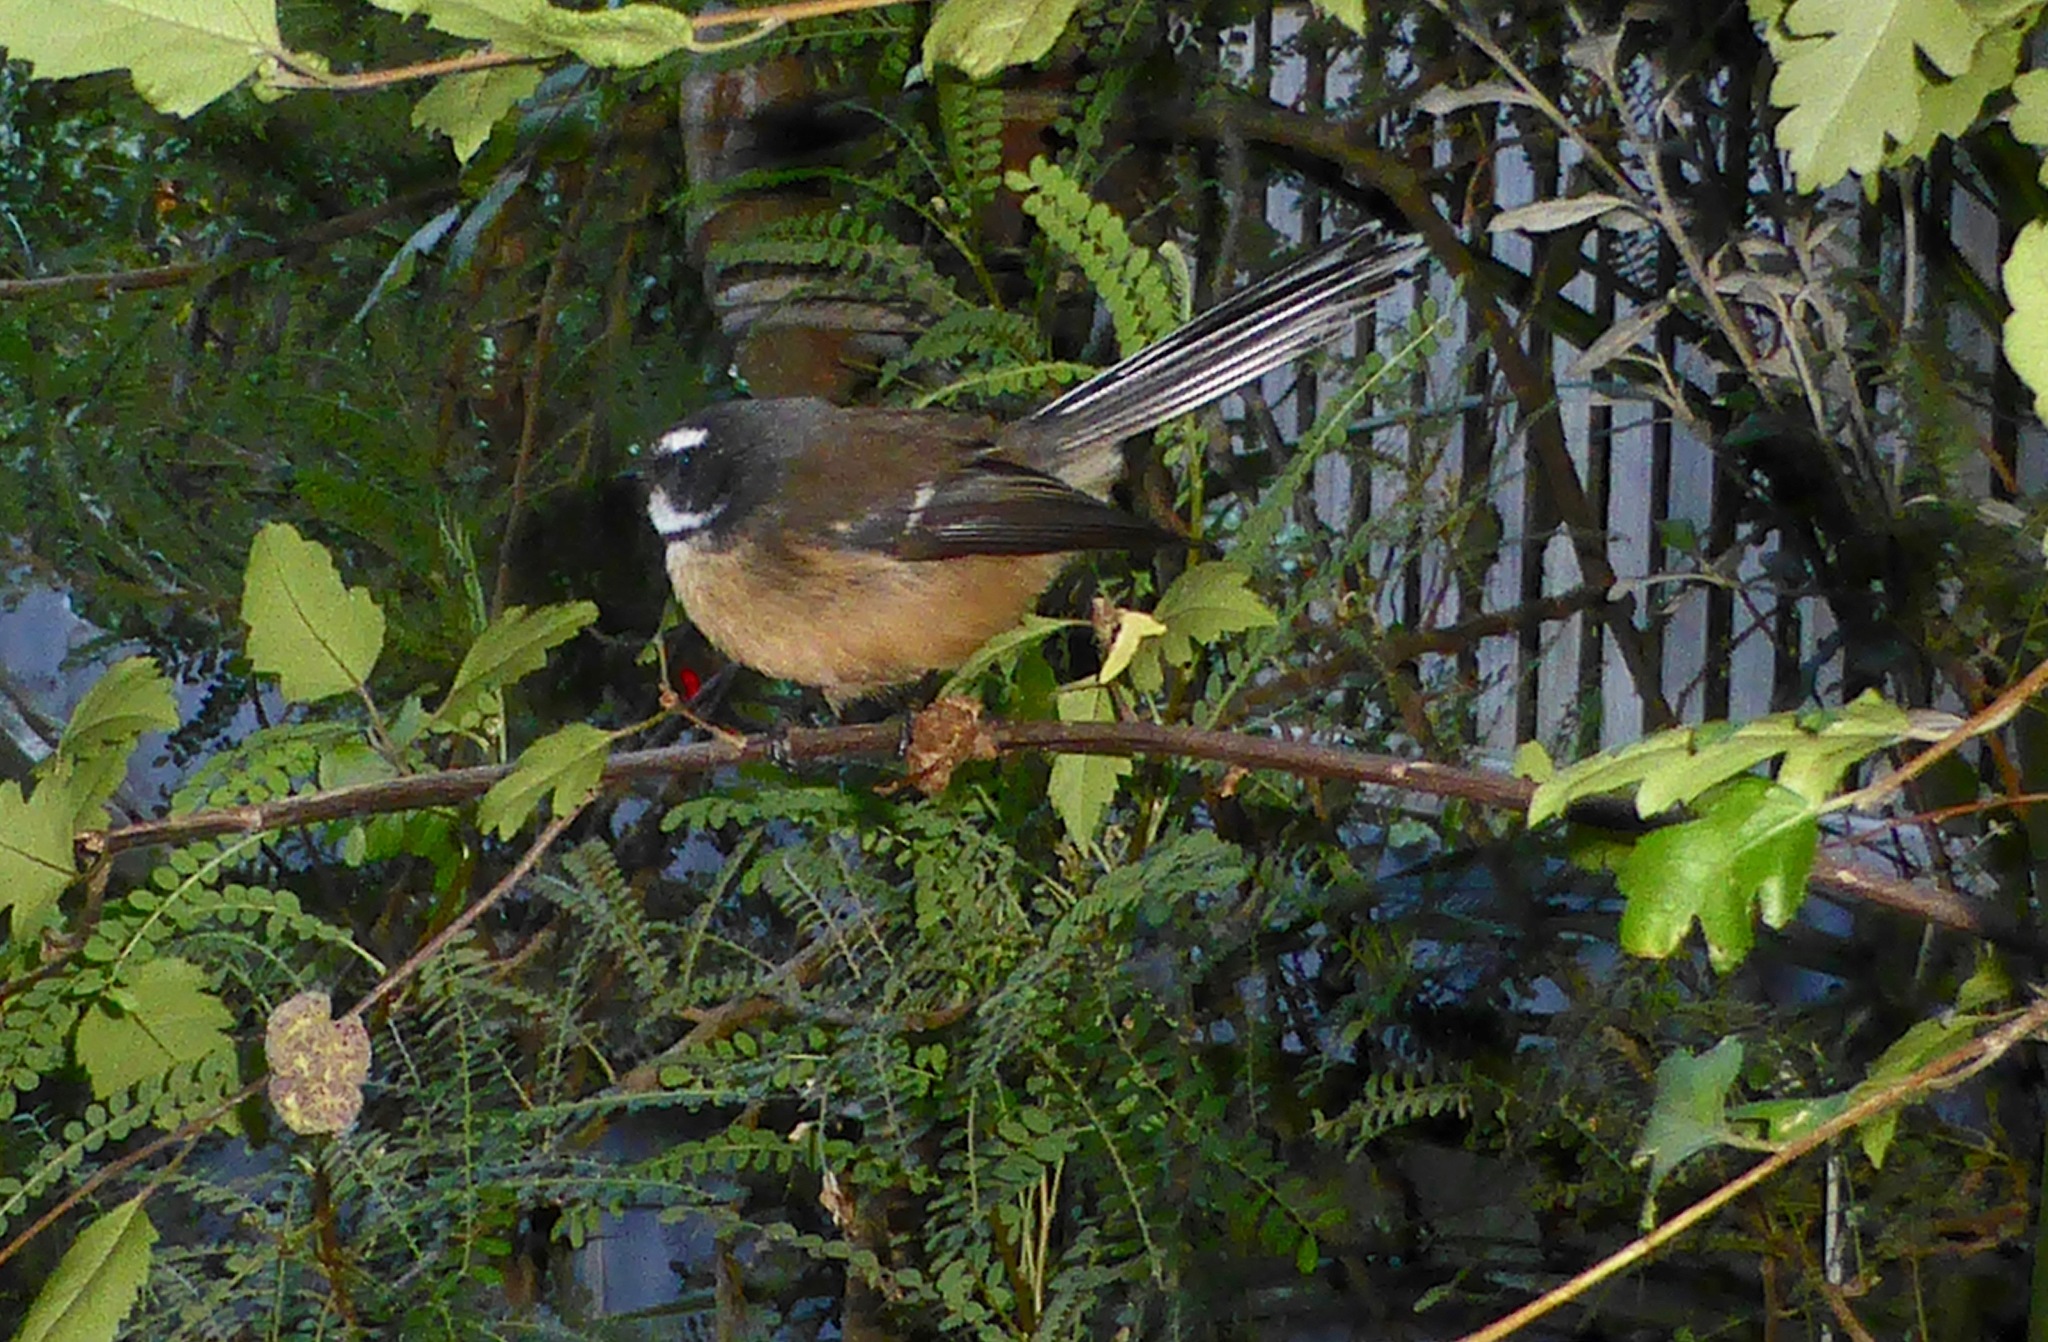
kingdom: Animalia
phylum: Chordata
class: Aves
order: Passeriformes
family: Rhipiduridae
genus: Rhipidura
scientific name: Rhipidura fuliginosa
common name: New zealand fantail
